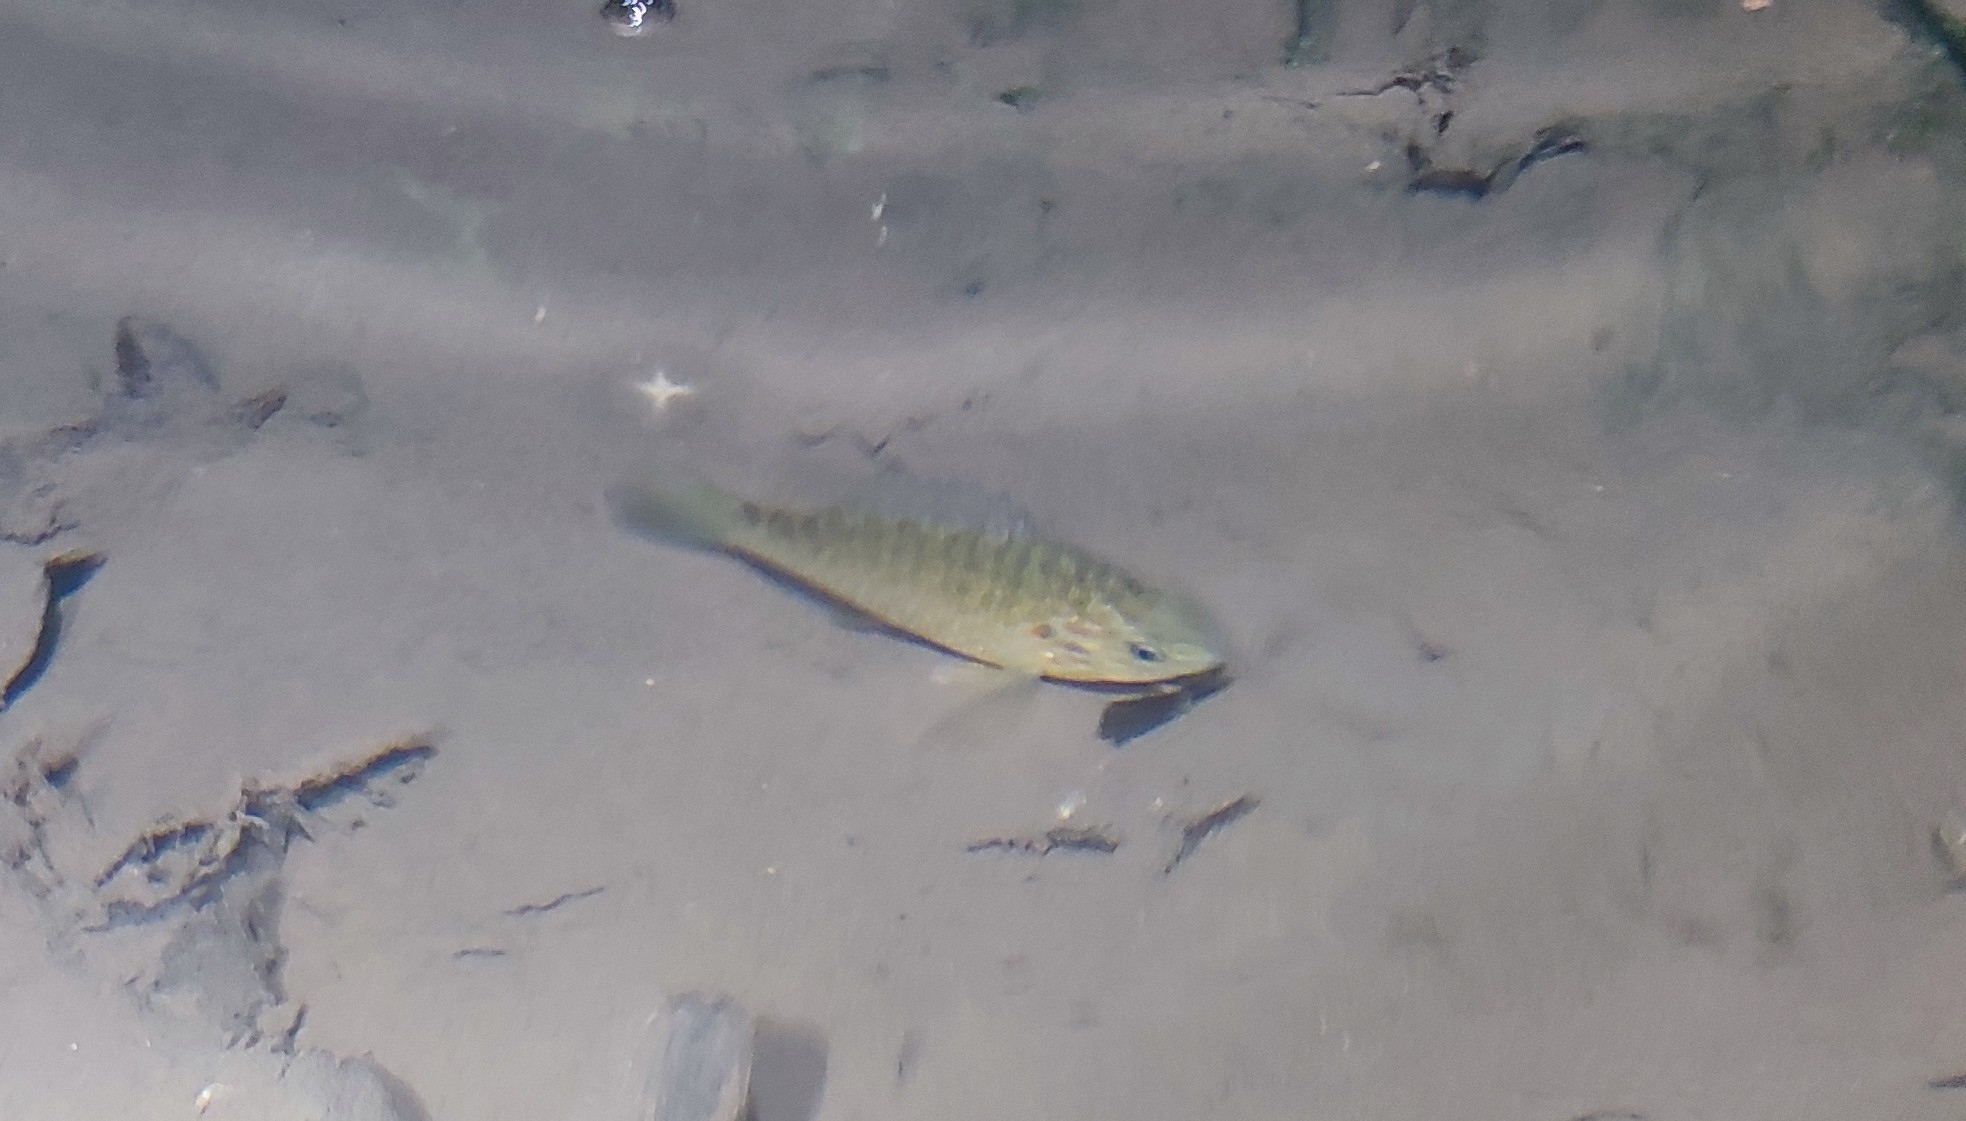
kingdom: Animalia
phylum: Chordata
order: Perciformes
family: Centrarchidae
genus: Lepomis
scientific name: Lepomis gibbosus
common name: Pumpkinseed
